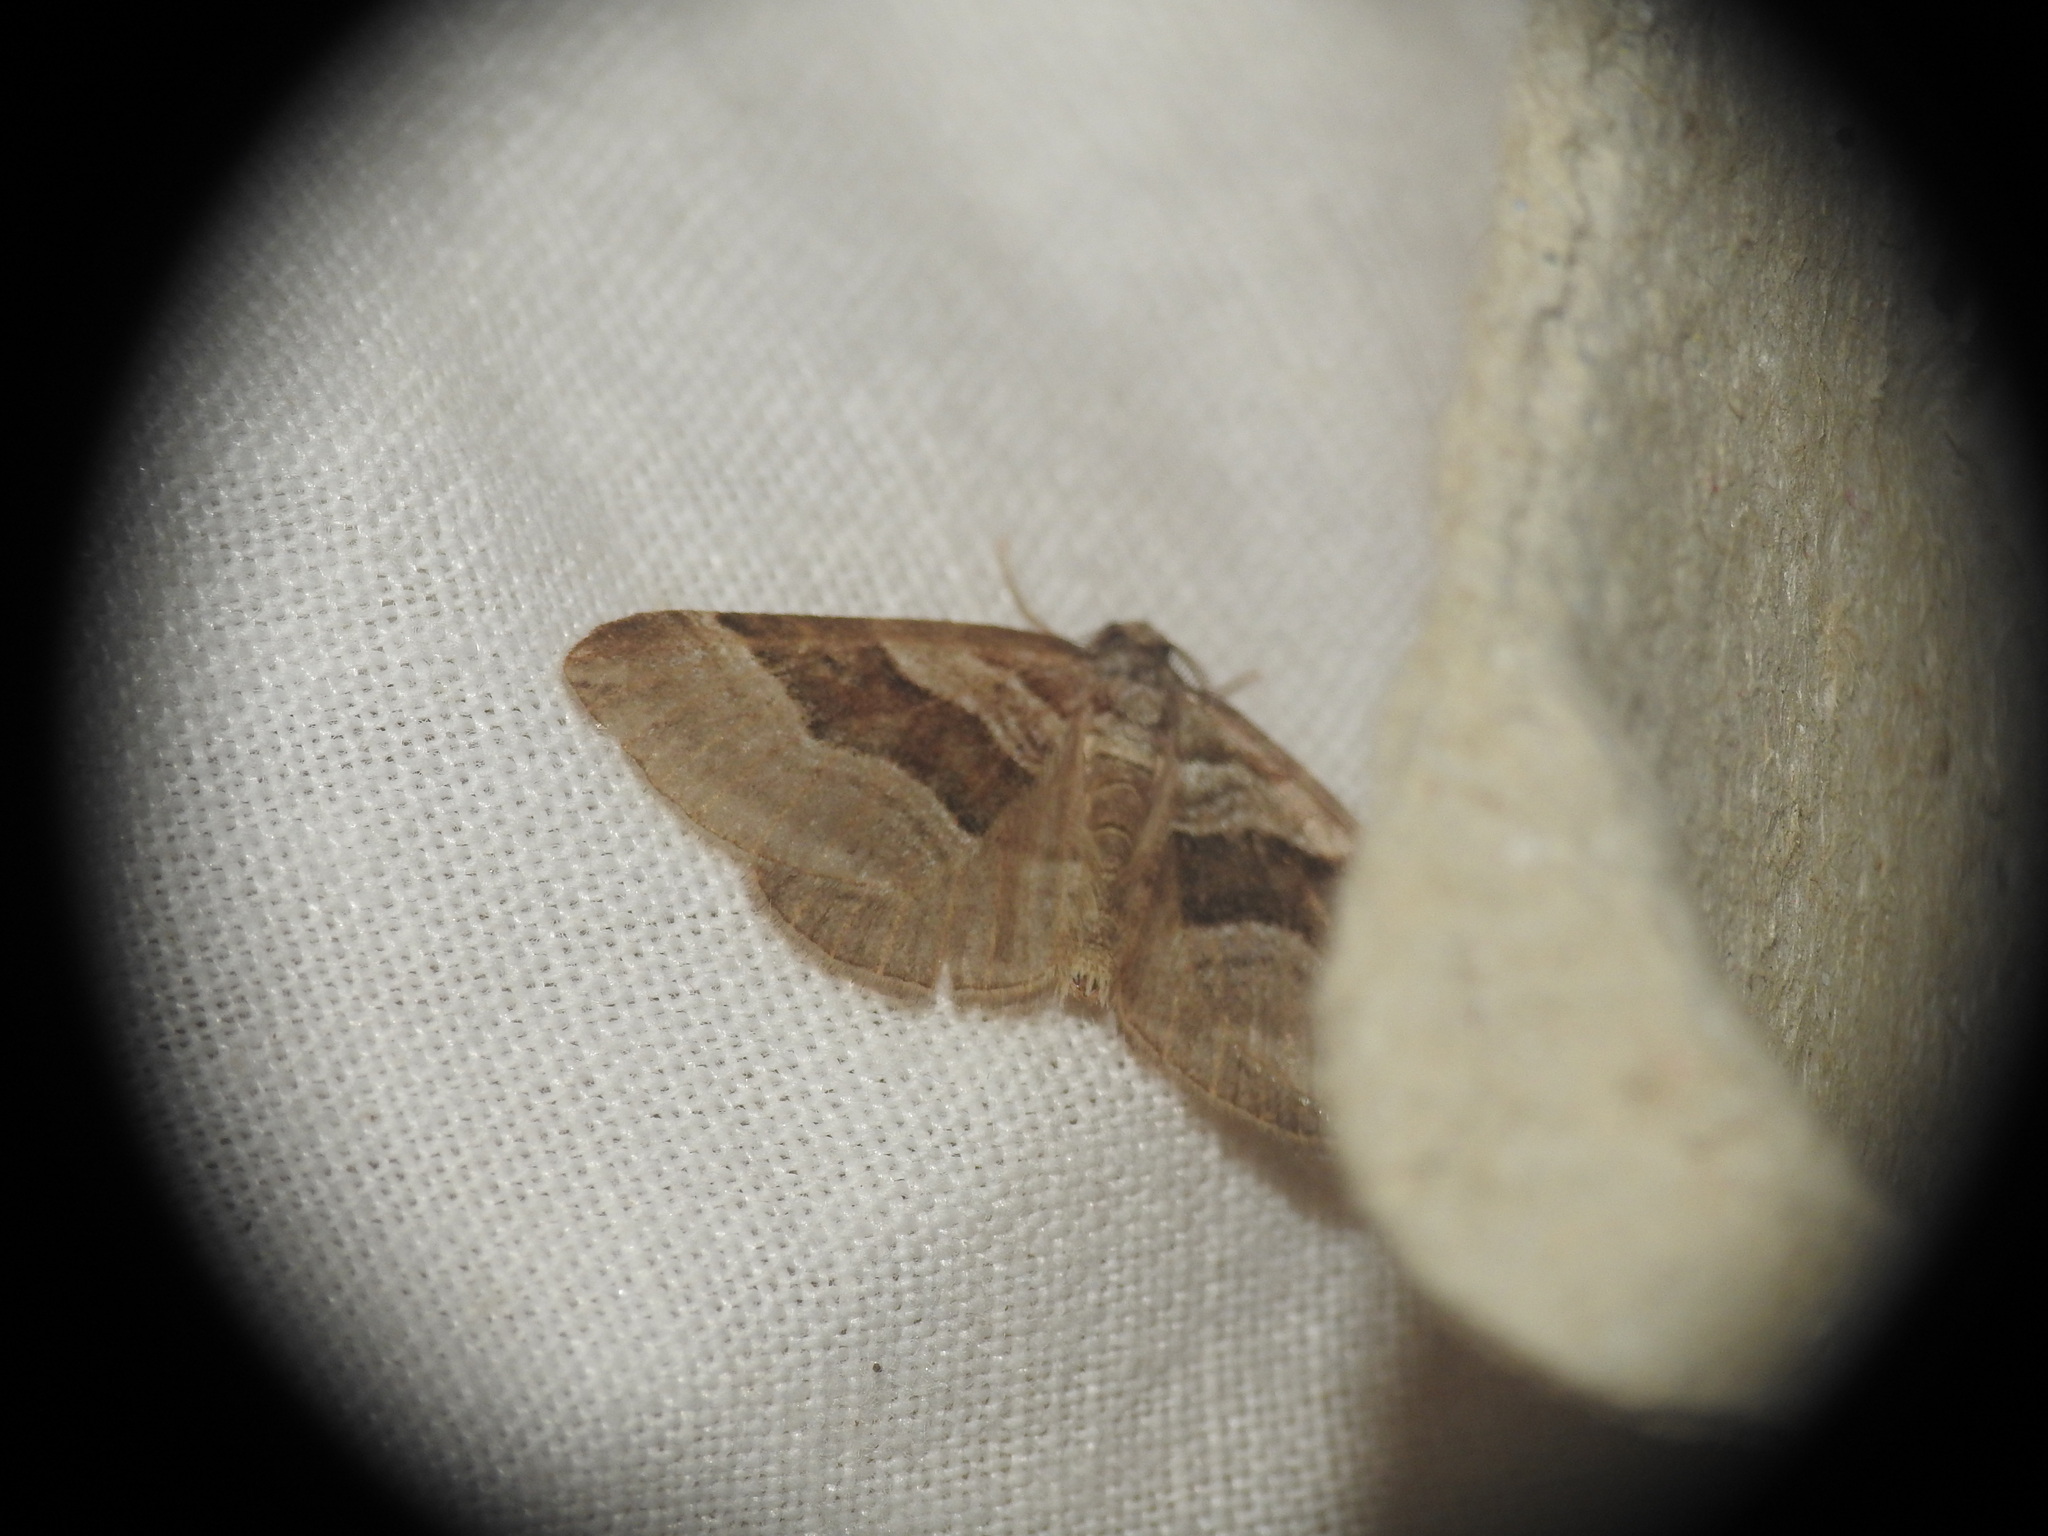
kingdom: Animalia
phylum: Arthropoda
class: Insecta
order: Lepidoptera
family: Geometridae
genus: Scotopteryx
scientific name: Scotopteryx peribolata
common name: Spanish carpet
